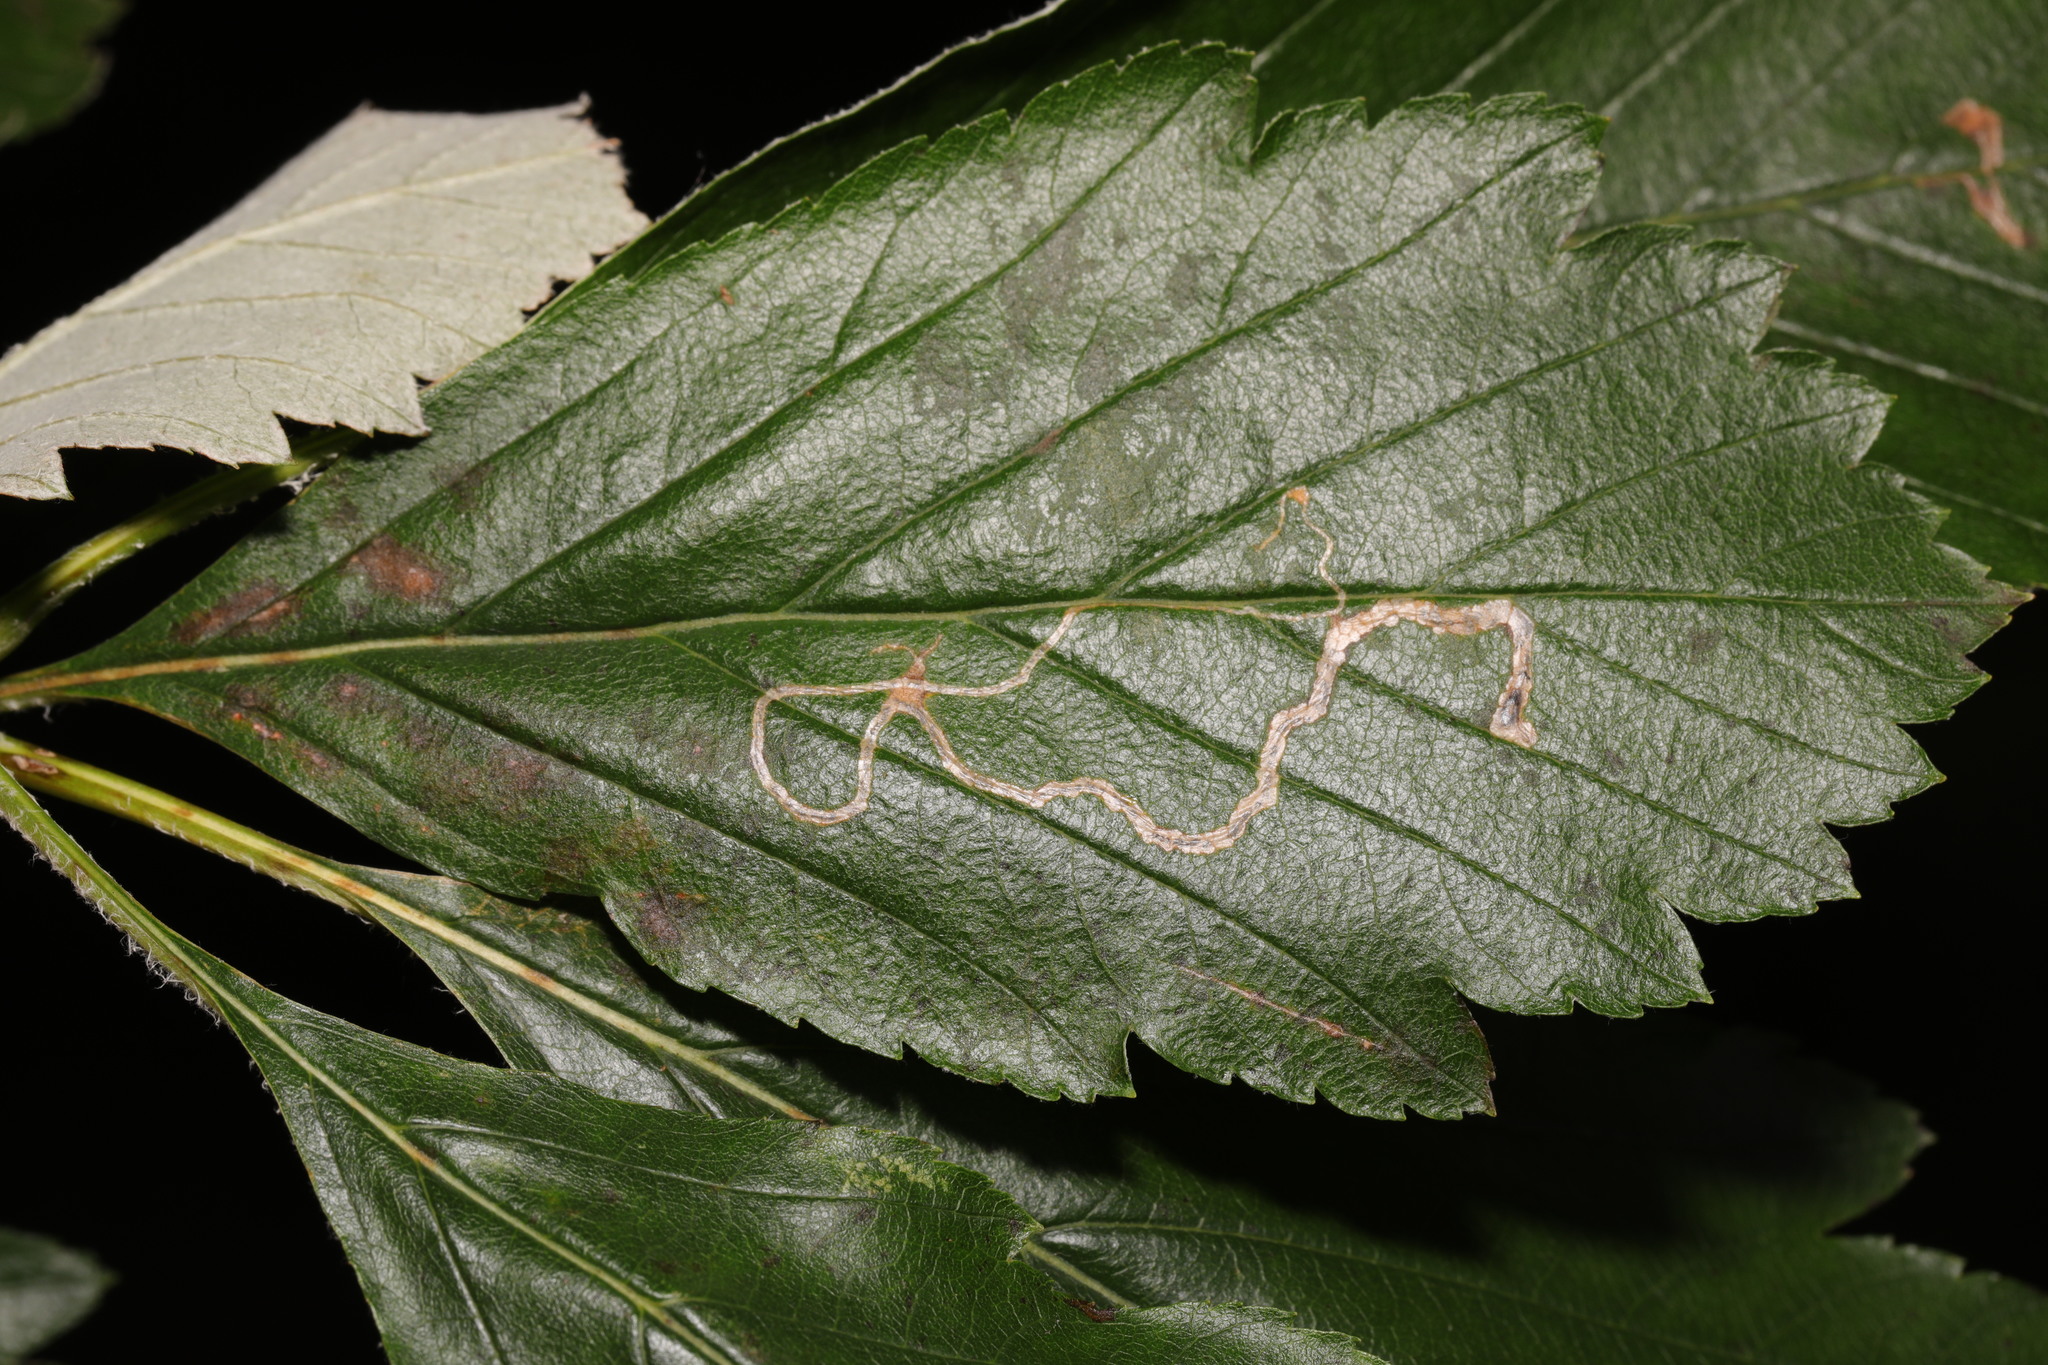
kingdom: Animalia
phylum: Arthropoda
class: Insecta
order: Lepidoptera
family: Lyonetiidae
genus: Lyonetia
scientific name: Lyonetia clerkella
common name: Apple leaf miner
